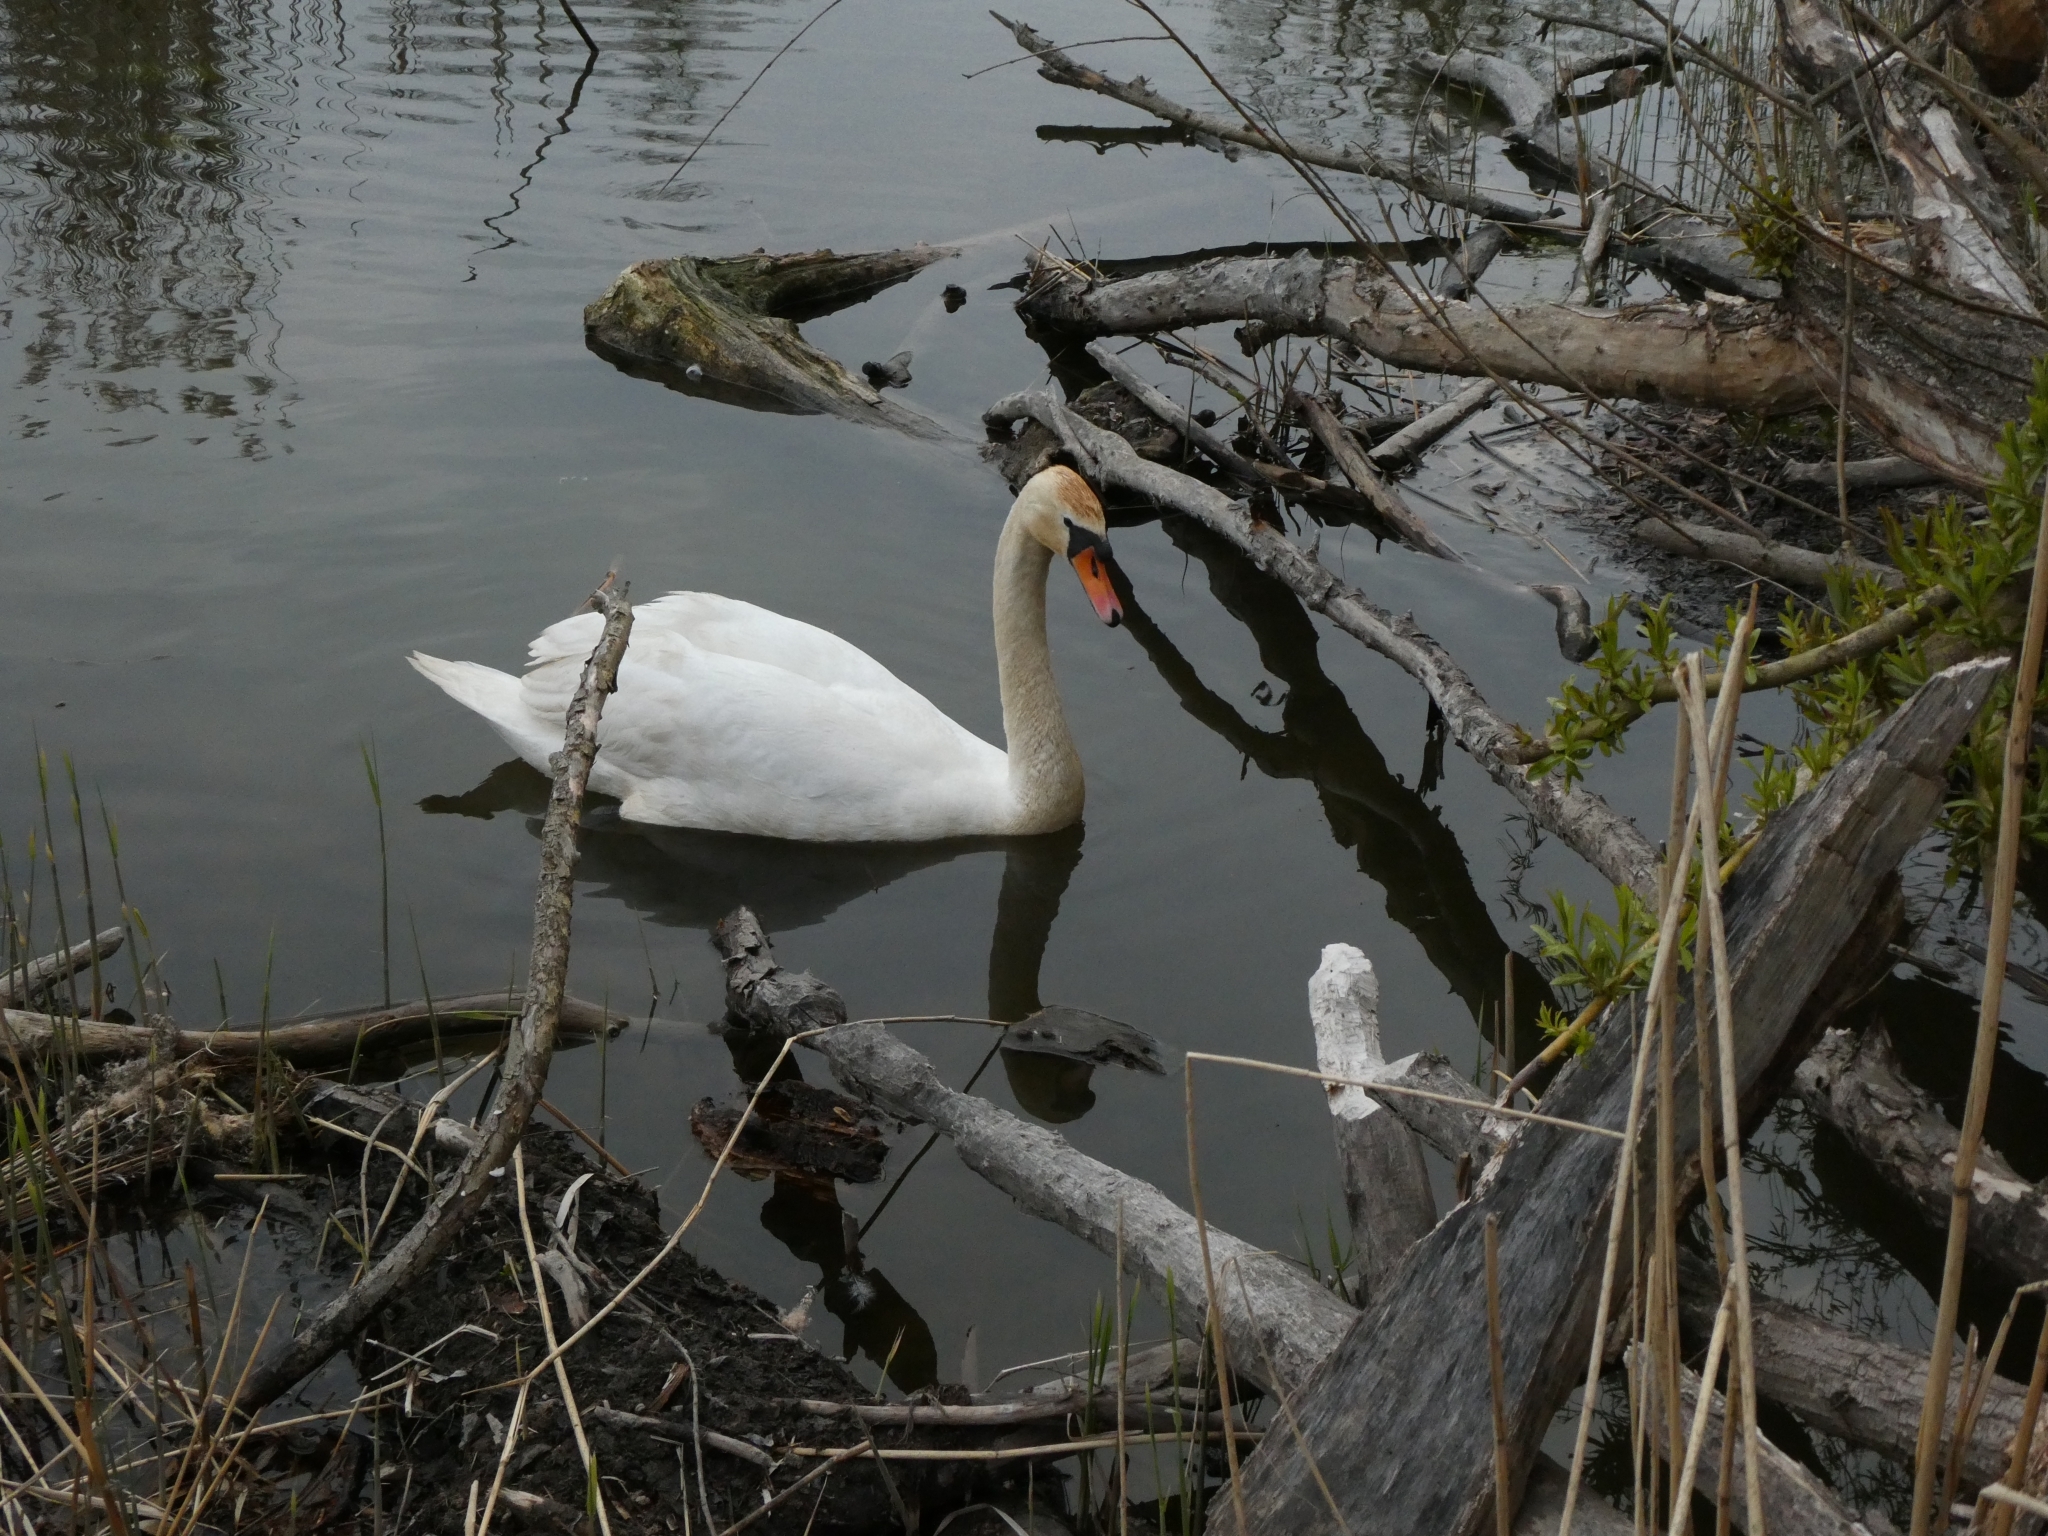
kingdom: Animalia
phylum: Chordata
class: Aves
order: Anseriformes
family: Anatidae
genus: Cygnus
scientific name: Cygnus olor
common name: Mute swan
